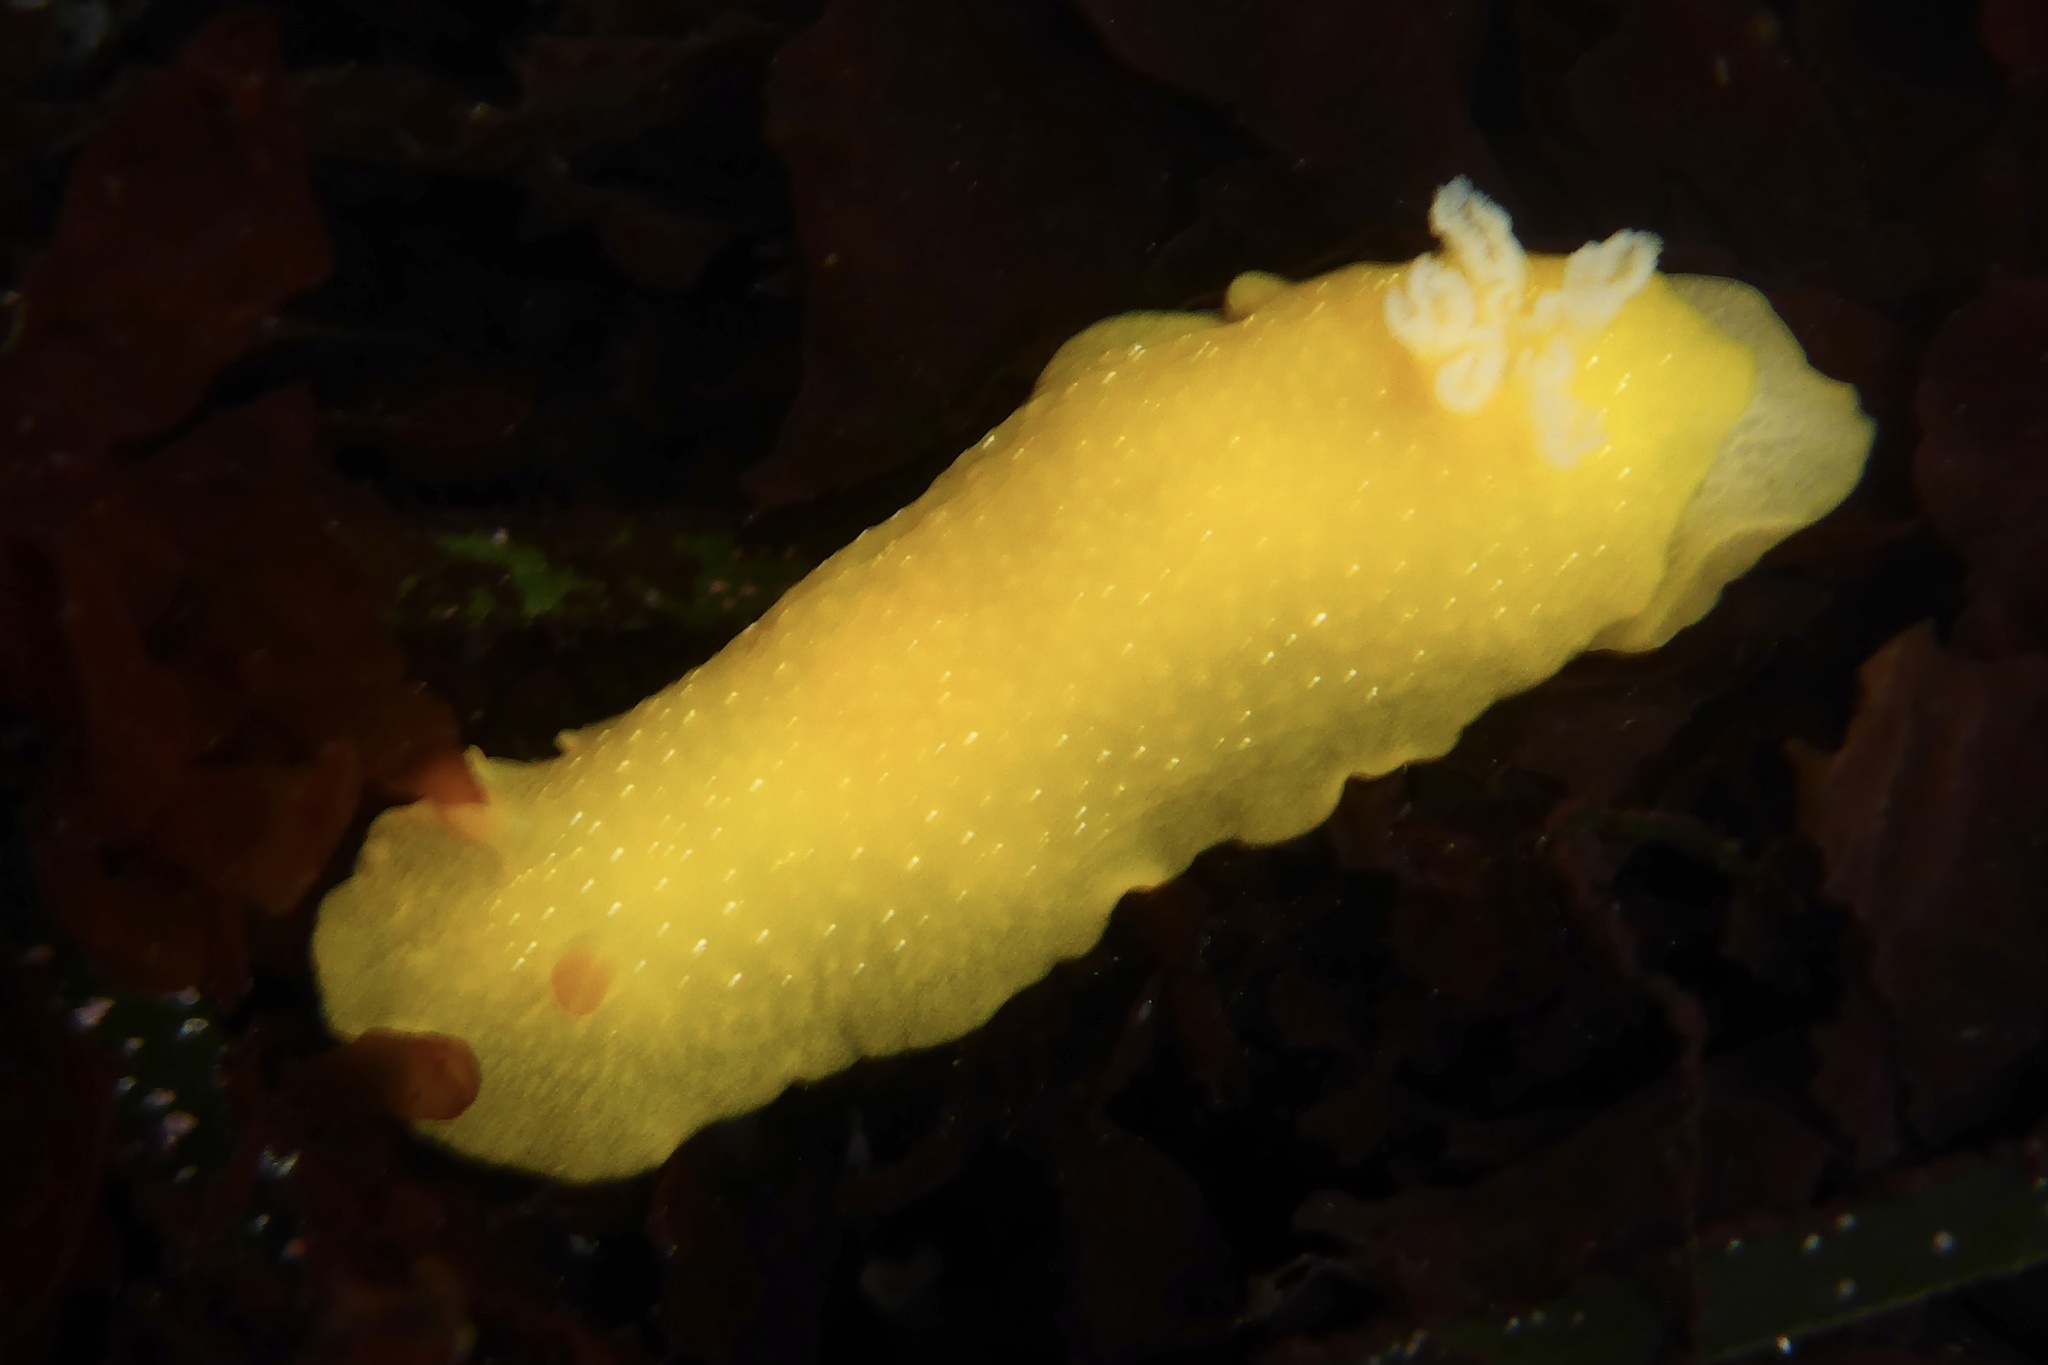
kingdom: Animalia
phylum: Mollusca
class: Gastropoda
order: Nudibranchia
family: Dendrodorididae
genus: Doriopsilla
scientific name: Doriopsilla fulva
